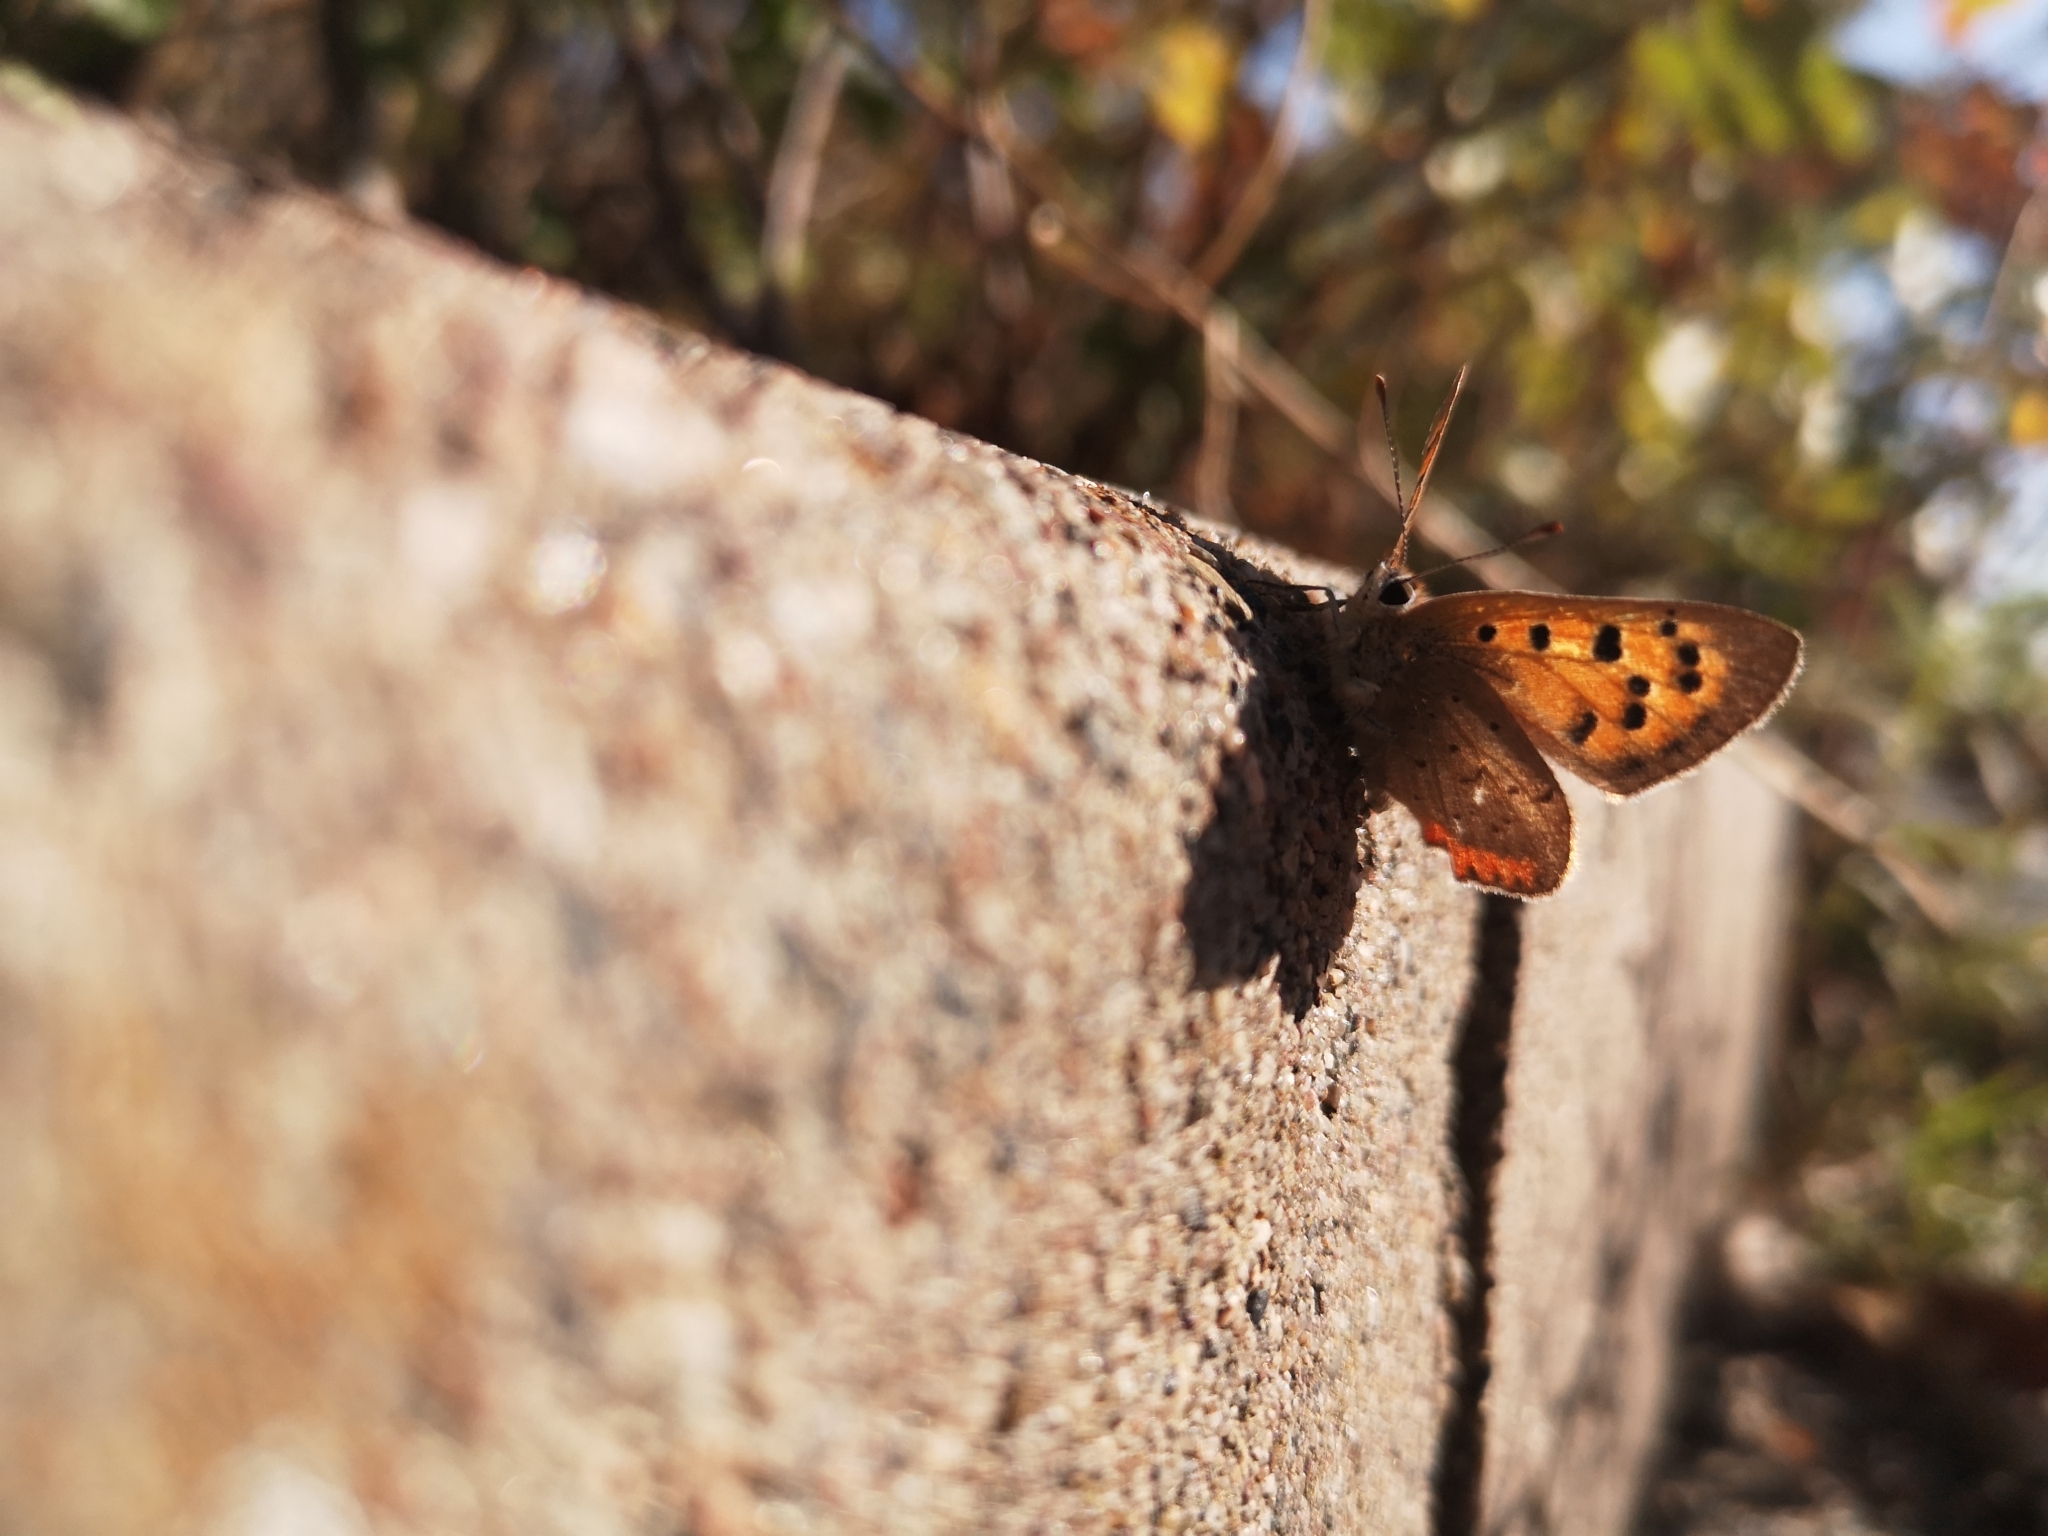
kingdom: Animalia
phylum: Arthropoda
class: Insecta
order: Lepidoptera
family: Lycaenidae
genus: Lycaena
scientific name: Lycaena phlaeas
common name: Small copper
